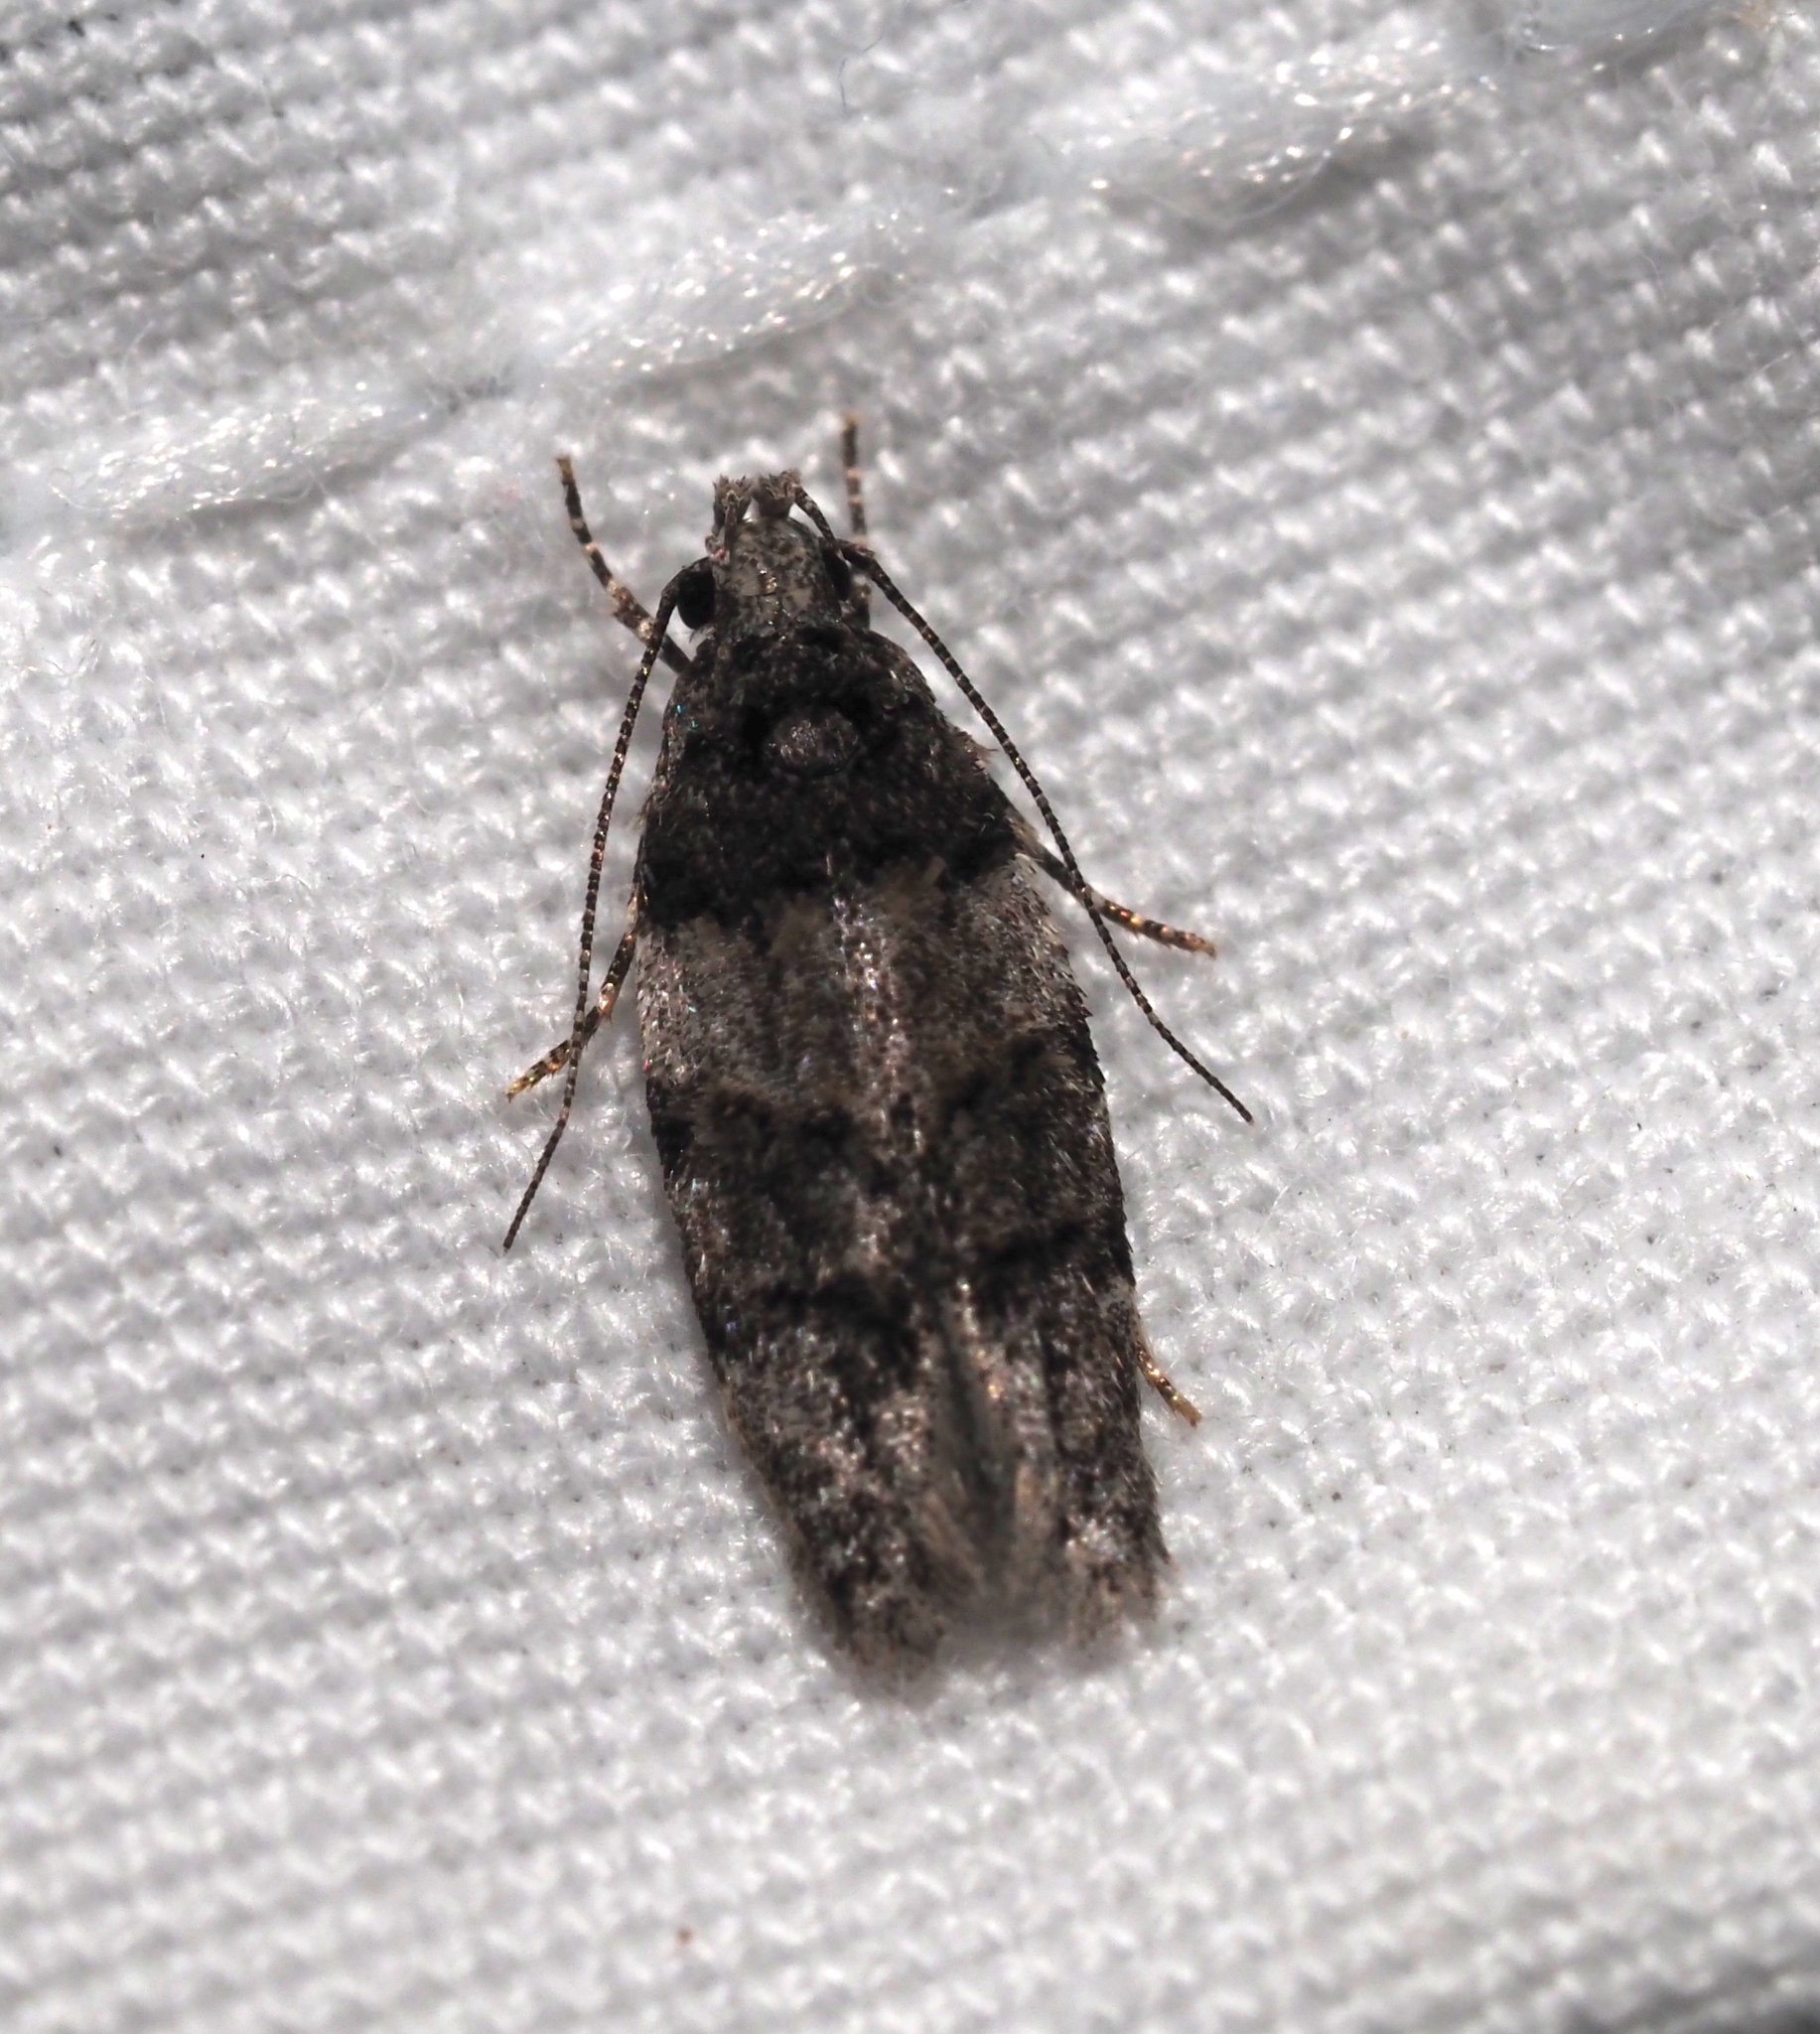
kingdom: Animalia
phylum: Arthropoda
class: Insecta
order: Lepidoptera
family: Gelechiidae
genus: Pubitelphusa
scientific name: Pubitelphusa latifasciella
